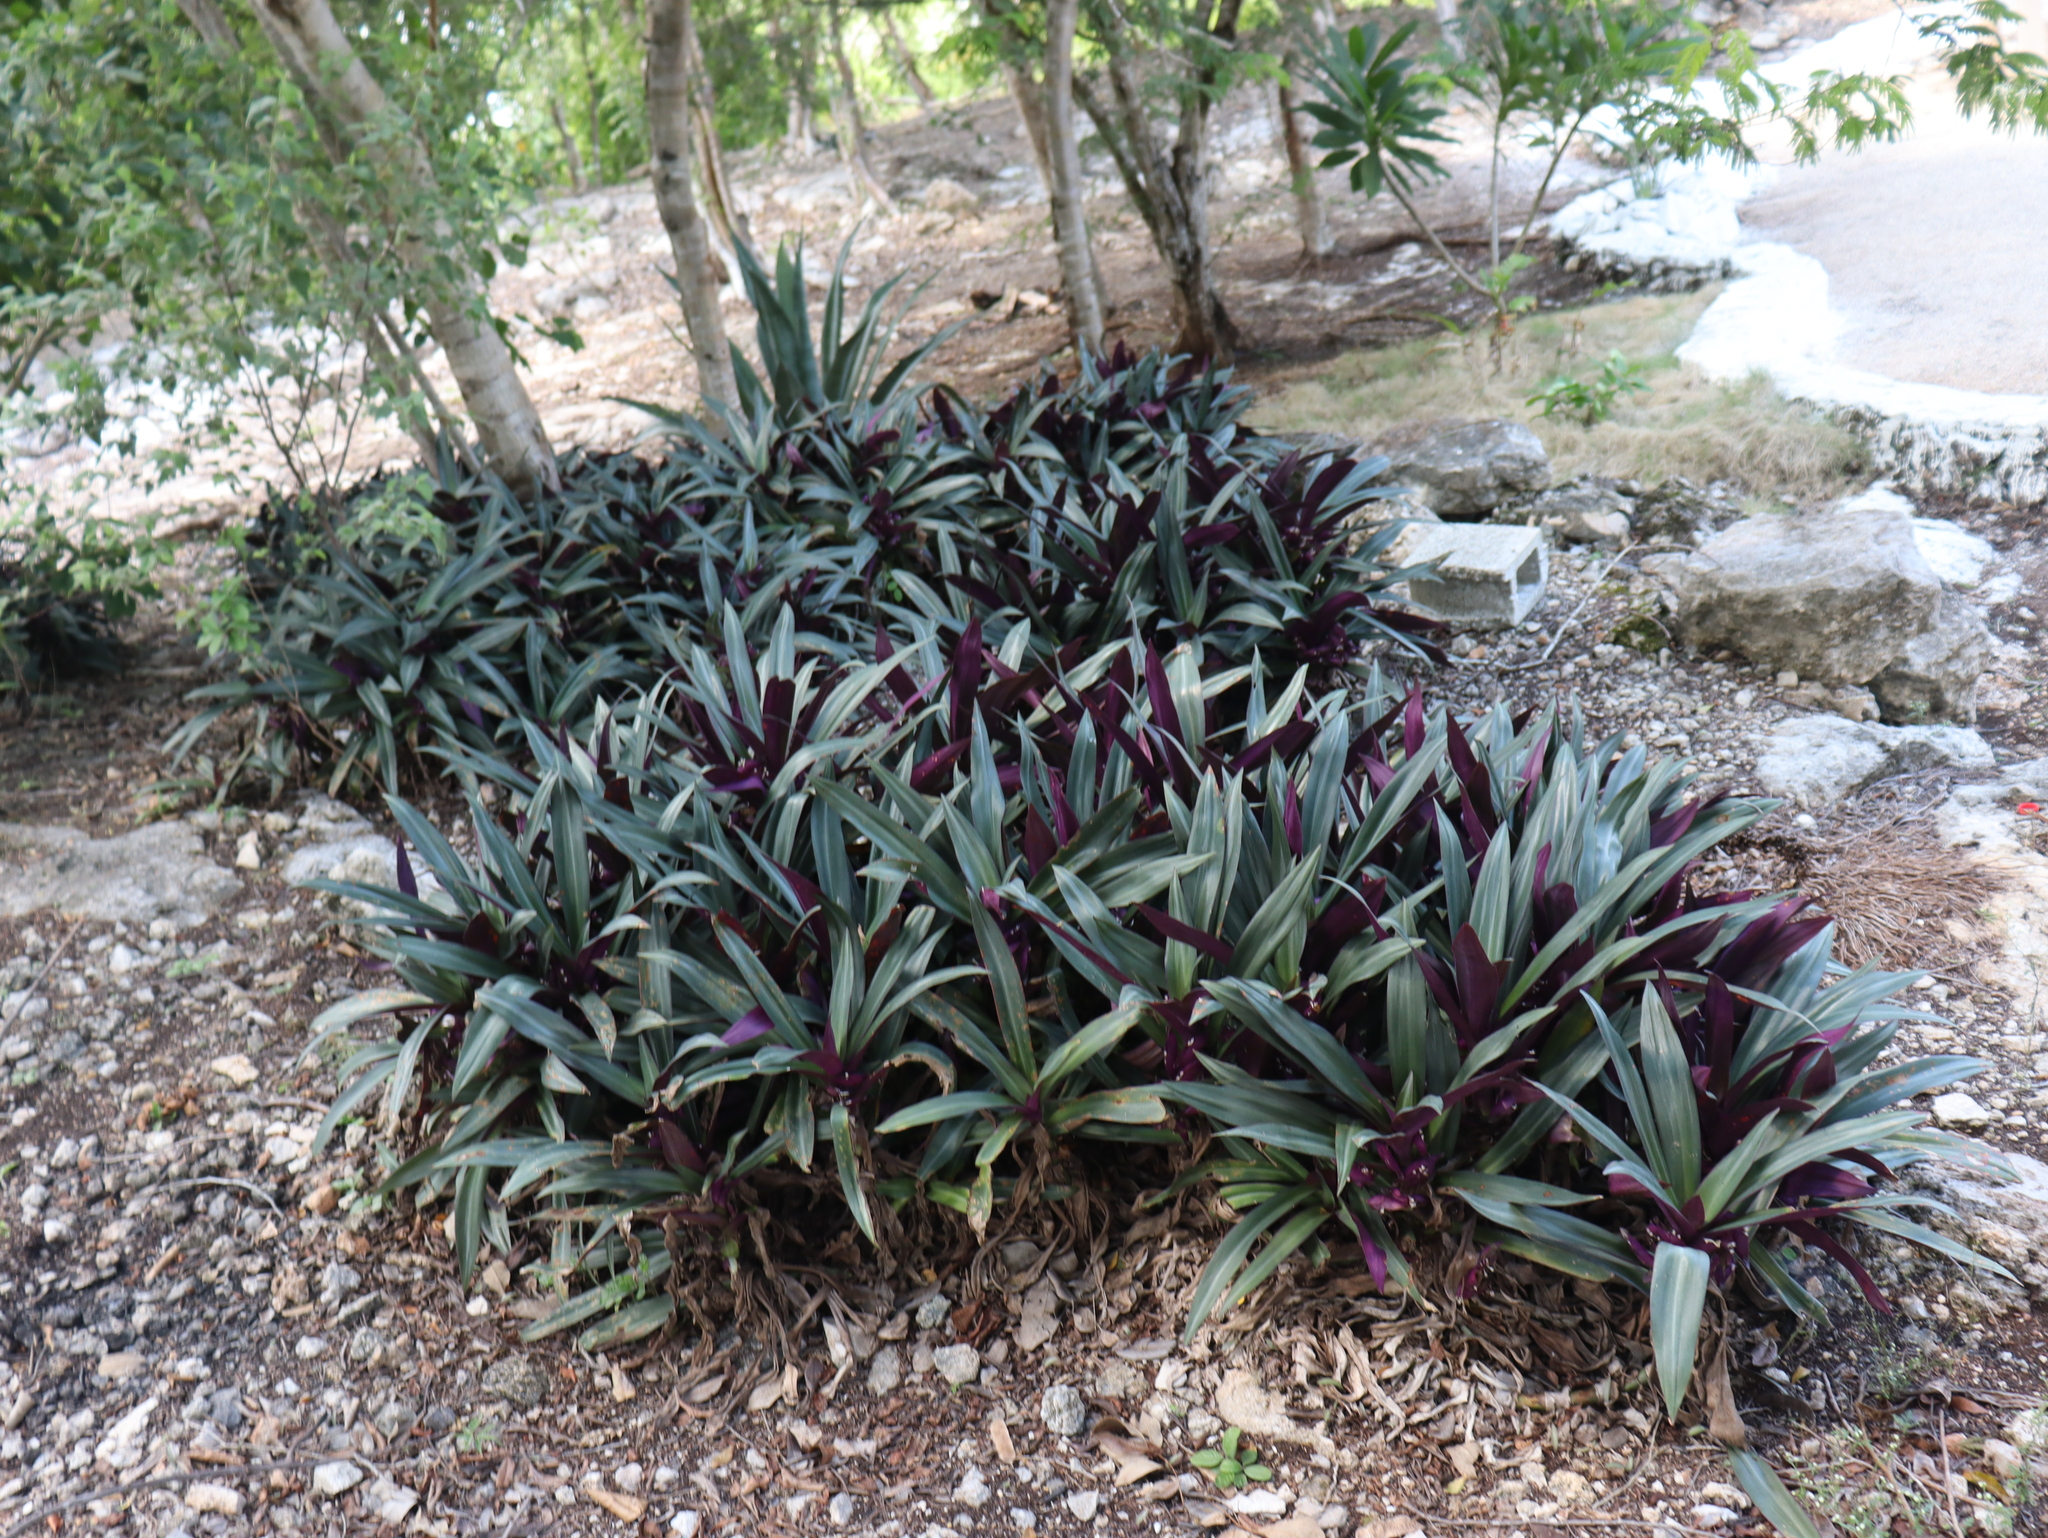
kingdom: Plantae
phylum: Tracheophyta
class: Liliopsida
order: Commelinales
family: Commelinaceae
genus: Tradescantia
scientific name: Tradescantia spathacea
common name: Boatlily
